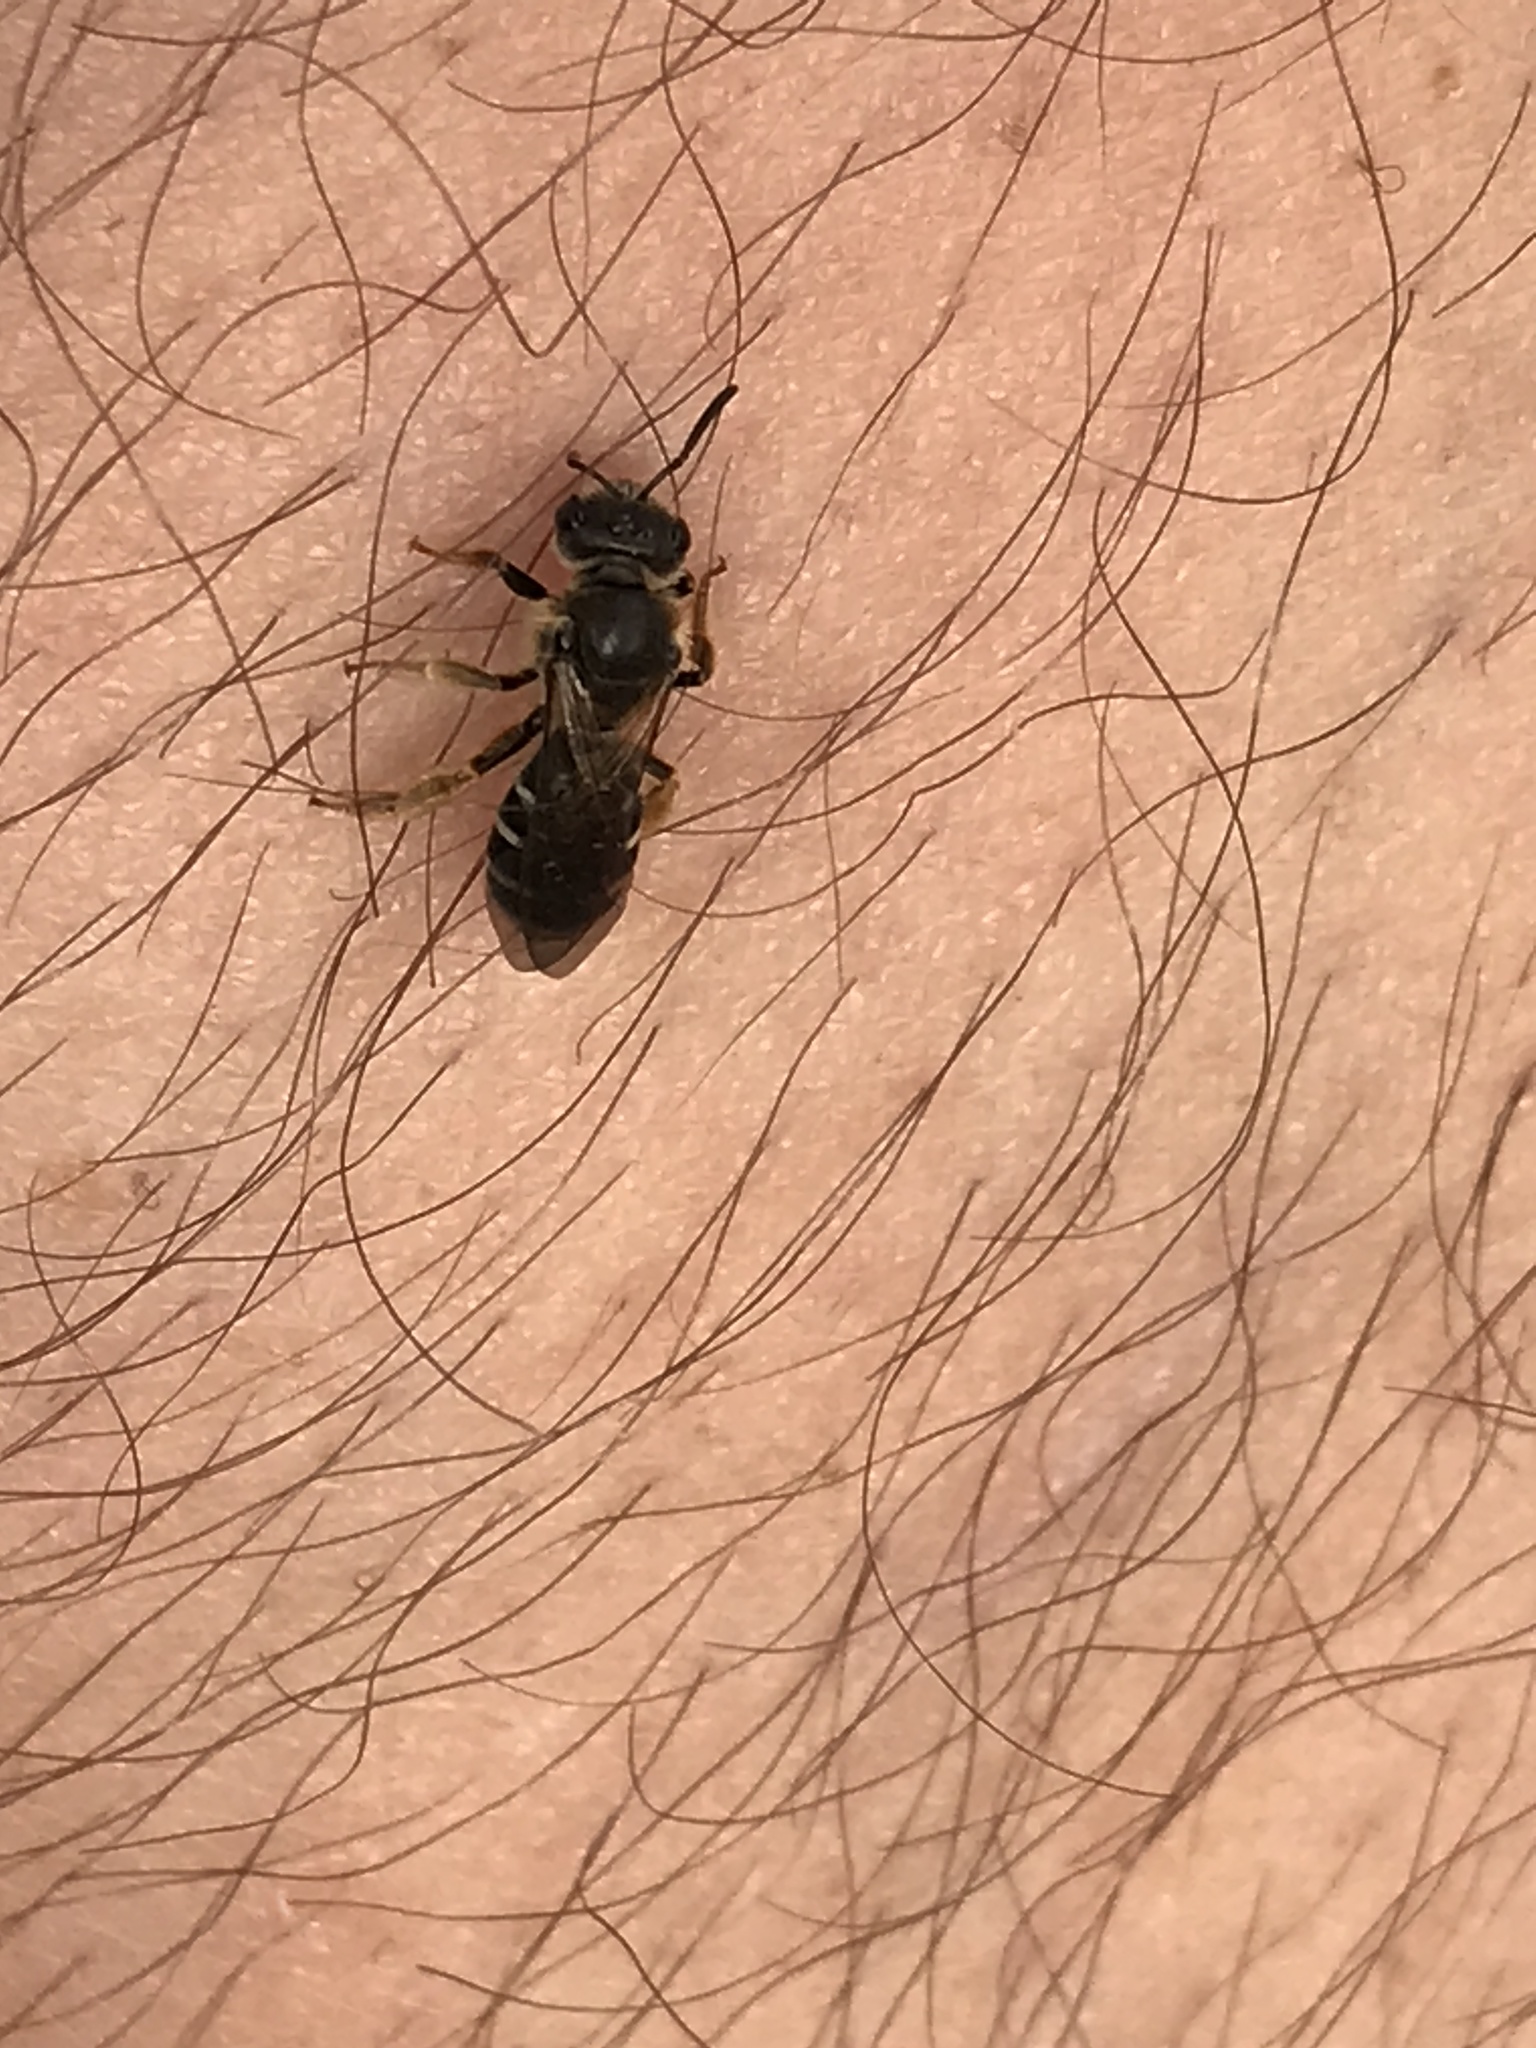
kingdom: Animalia
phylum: Arthropoda
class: Insecta
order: Hymenoptera
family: Halictidae
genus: Halictus
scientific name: Halictus rubicundus
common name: Orange-legged furrow bee
